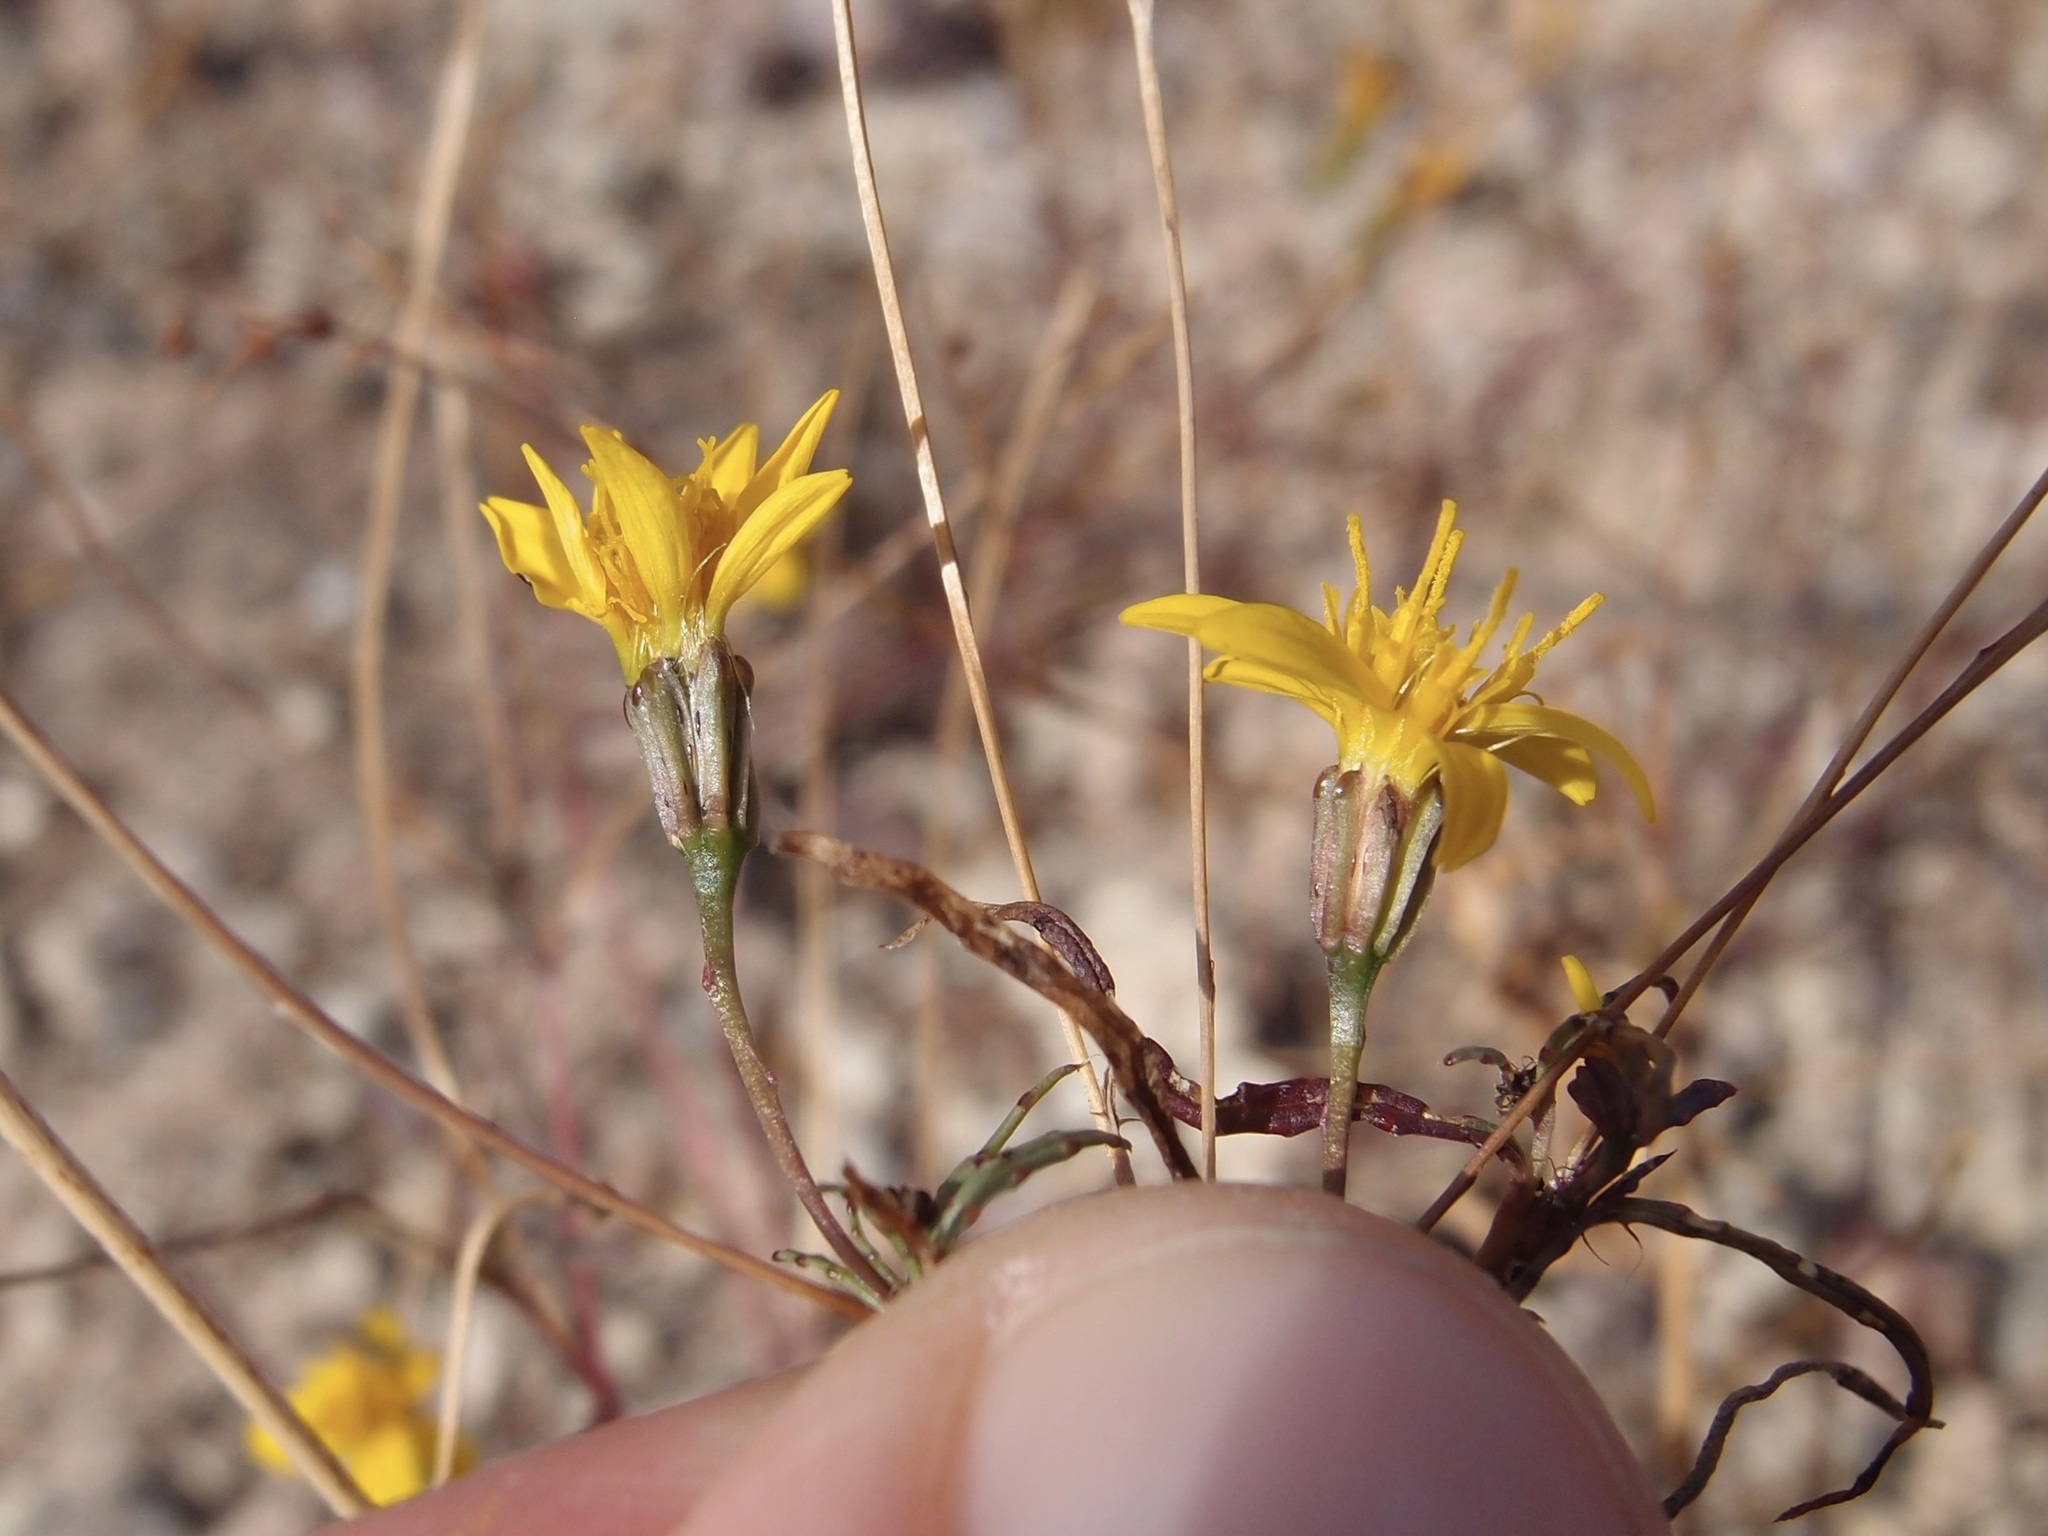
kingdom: Plantae
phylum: Tracheophyta
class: Magnoliopsida
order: Asterales
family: Asteraceae
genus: Pectis
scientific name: Pectis rusbyi
